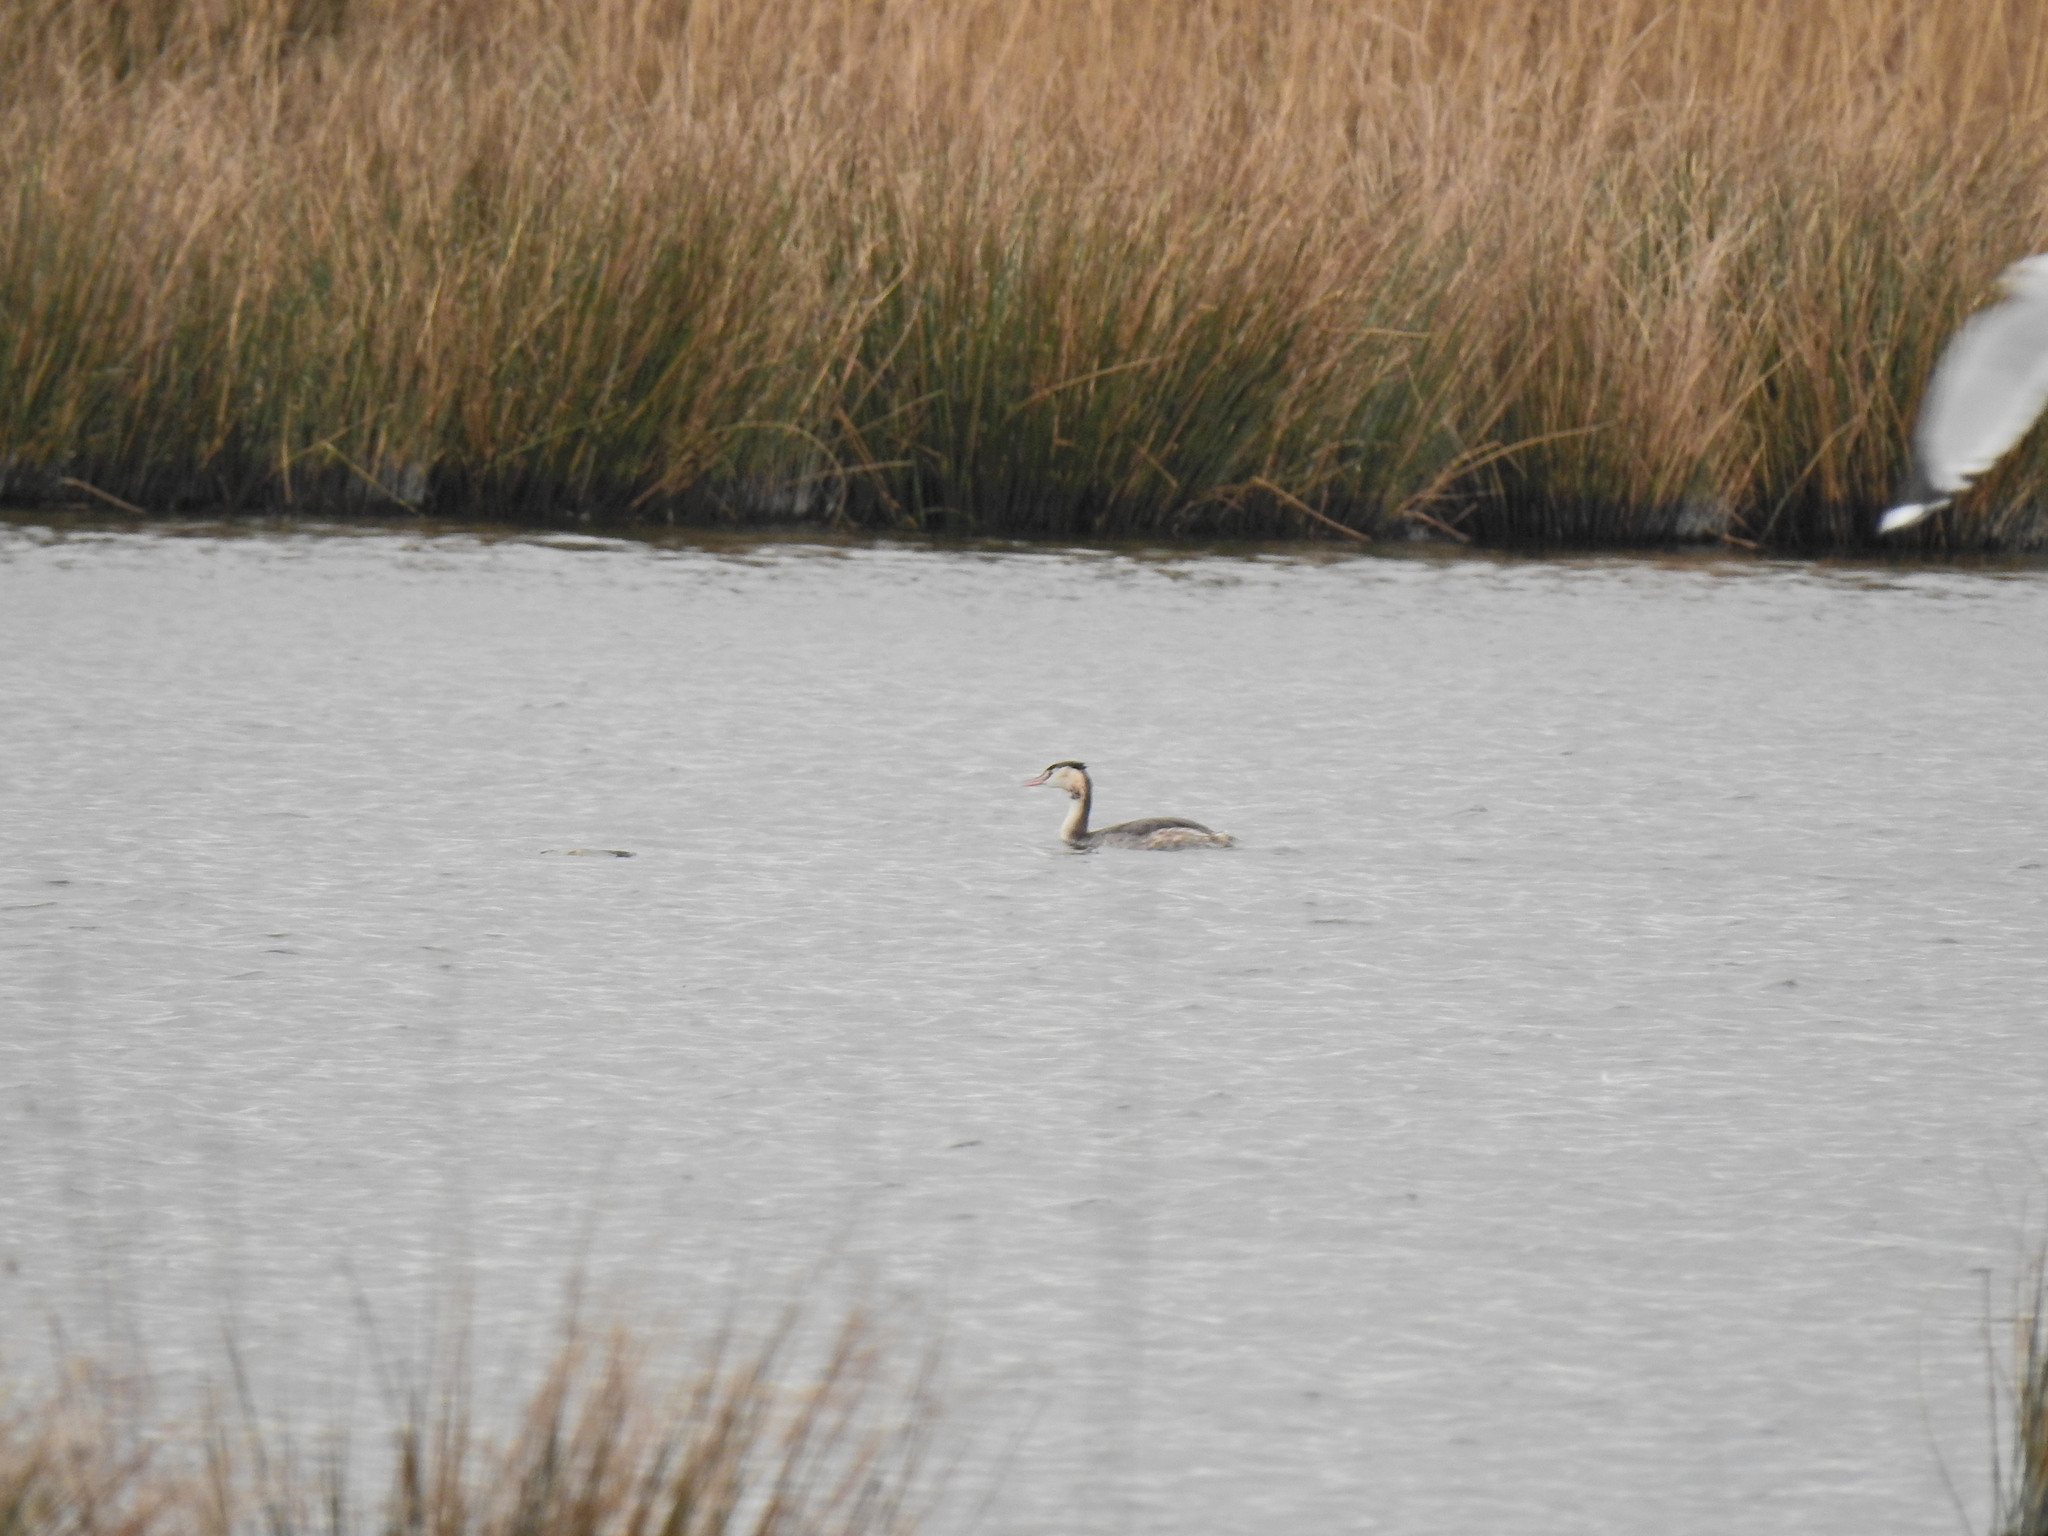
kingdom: Animalia
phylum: Chordata
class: Aves
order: Podicipediformes
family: Podicipedidae
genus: Podiceps
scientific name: Podiceps cristatus
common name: Great crested grebe
